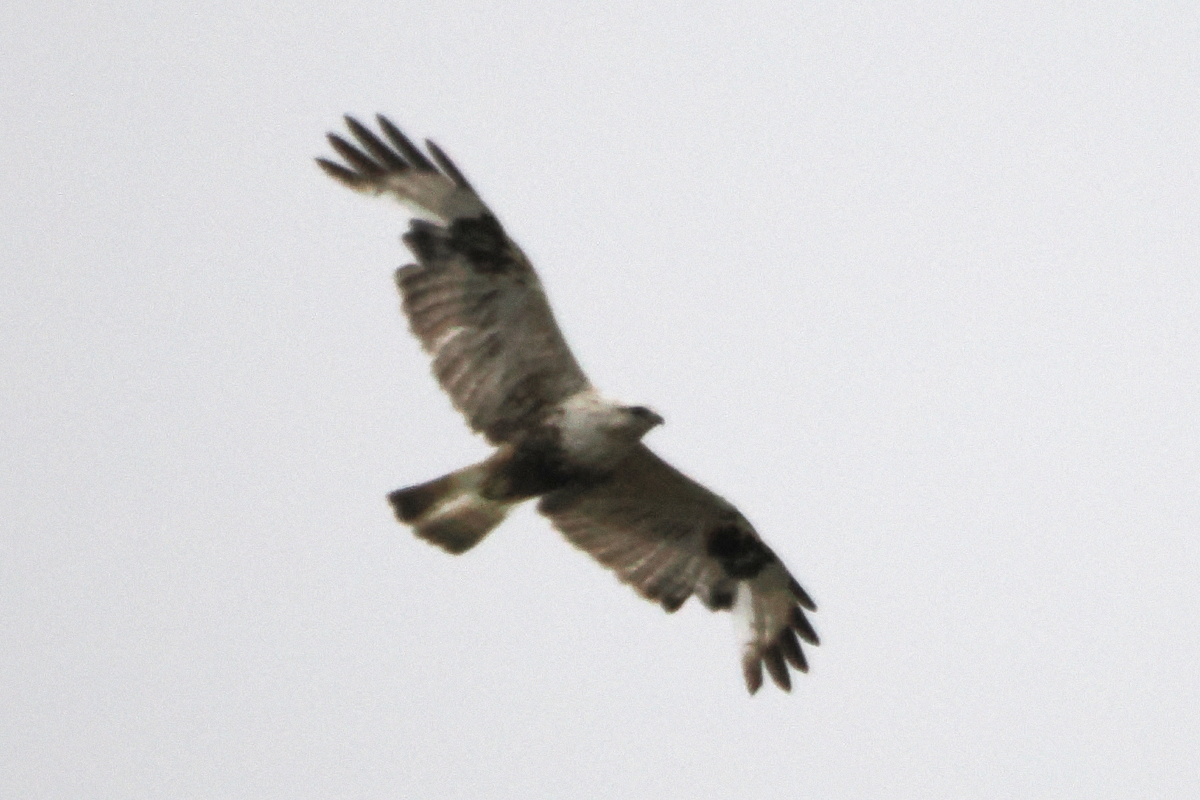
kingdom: Animalia
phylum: Chordata
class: Aves
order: Accipitriformes
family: Accipitridae
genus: Buteo
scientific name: Buteo lagopus
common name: Rough-legged buzzard
